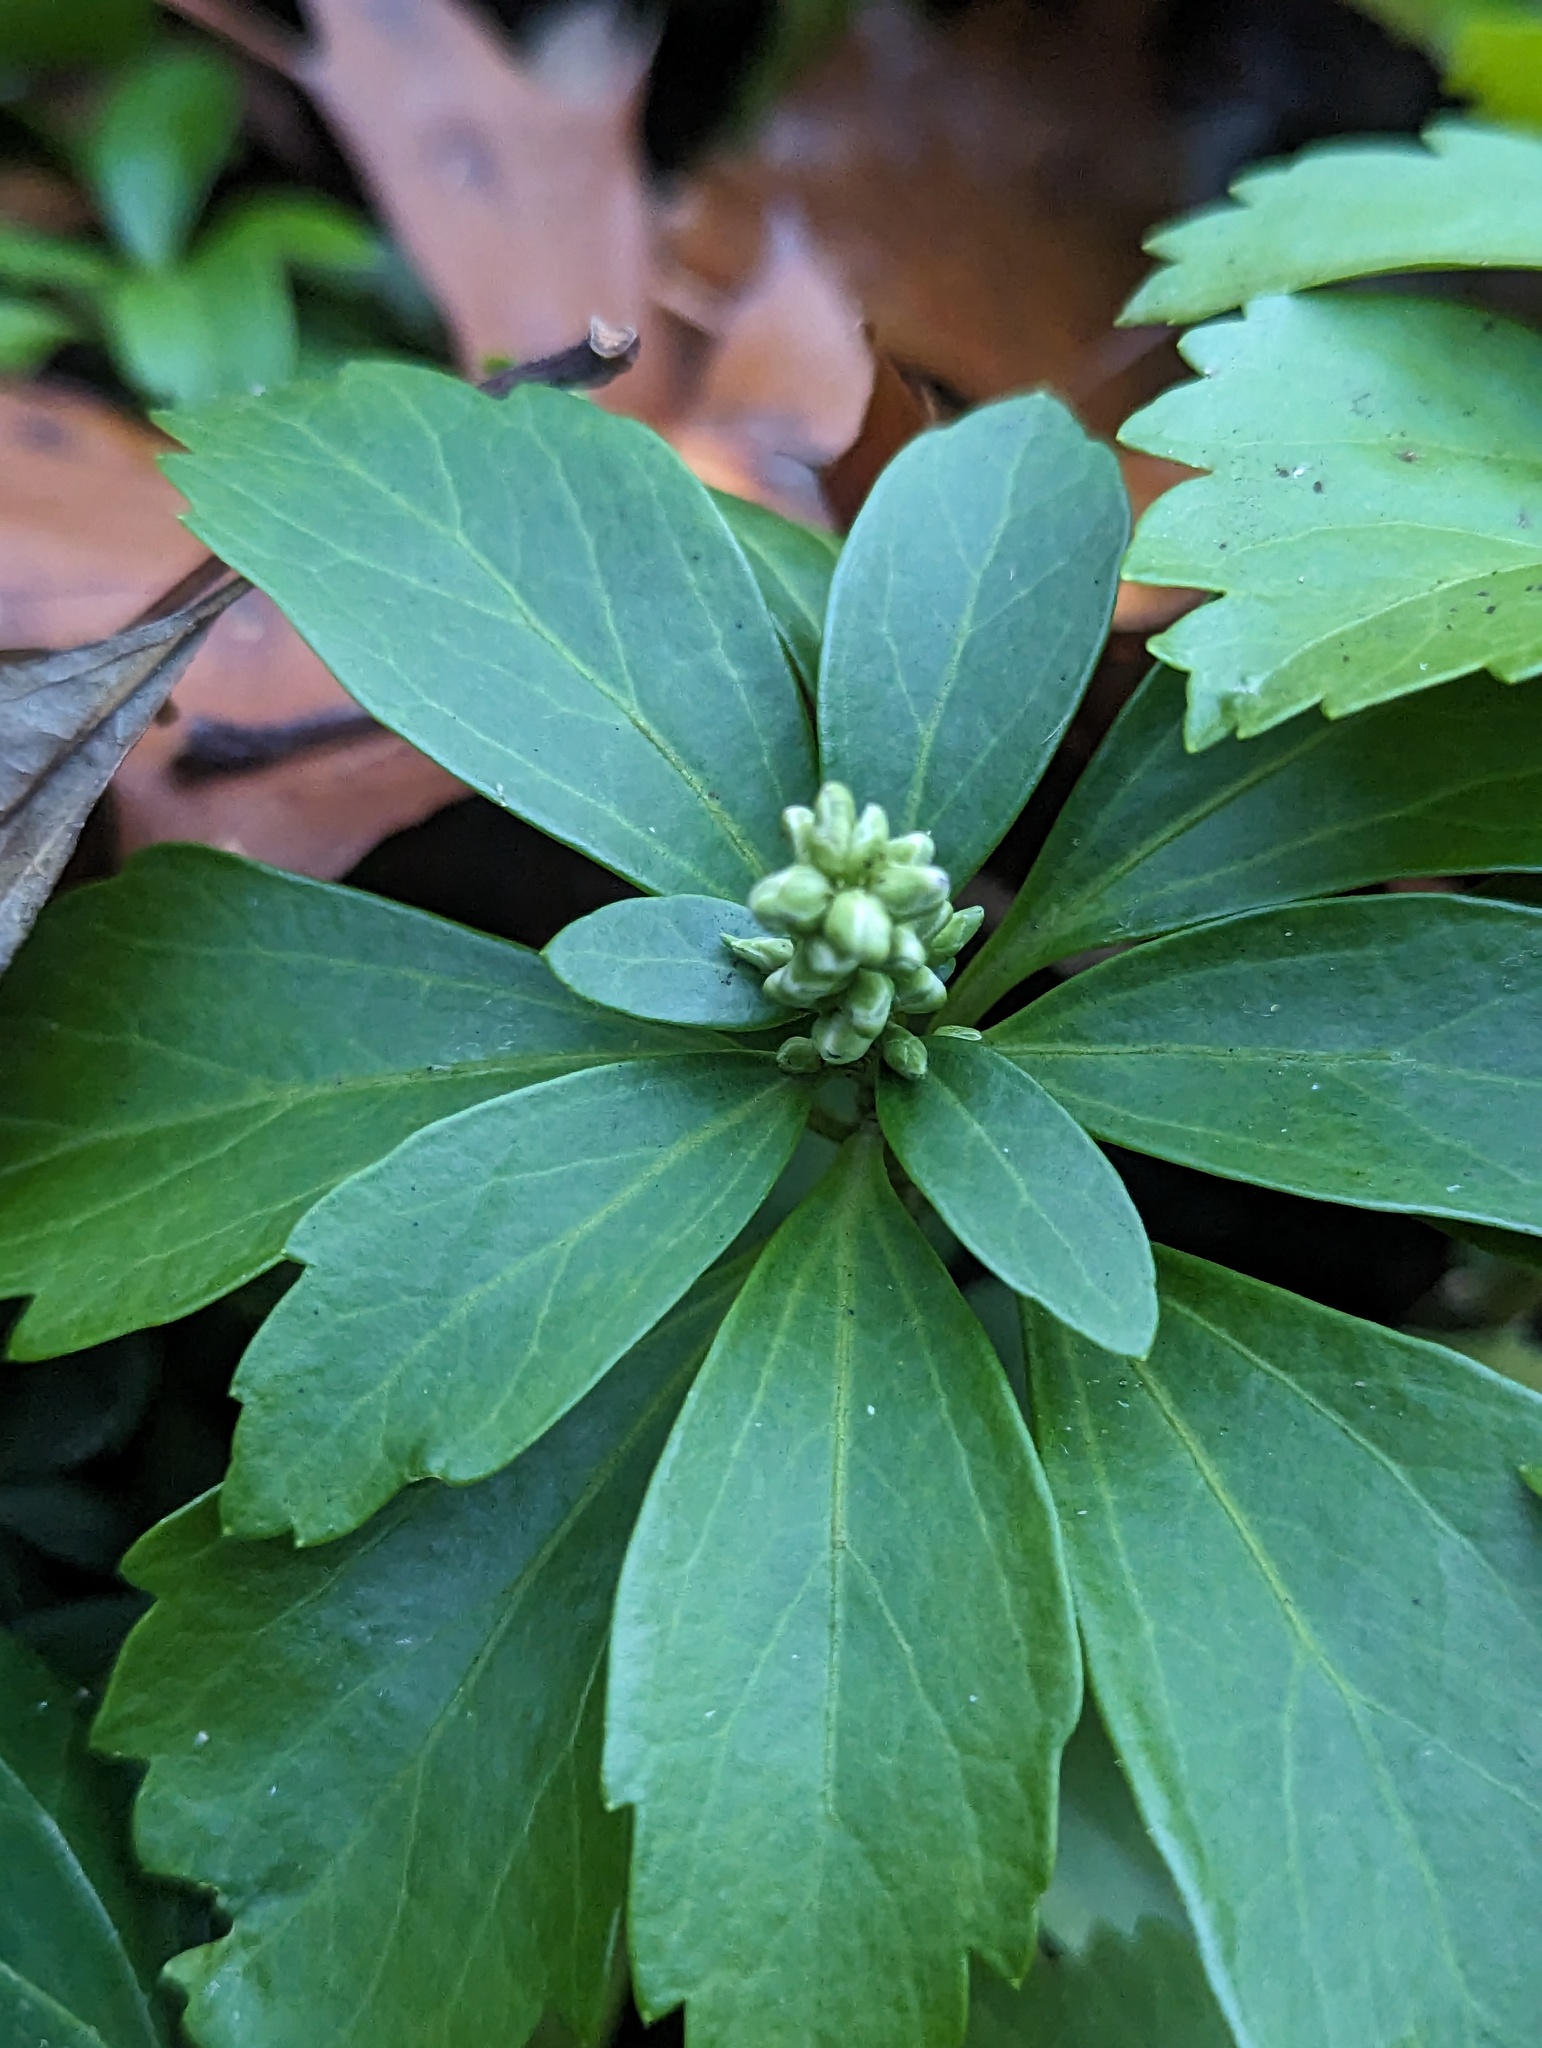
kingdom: Plantae
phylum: Tracheophyta
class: Magnoliopsida
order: Buxales
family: Buxaceae
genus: Pachysandra
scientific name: Pachysandra terminalis
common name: Japanese pachysandra
